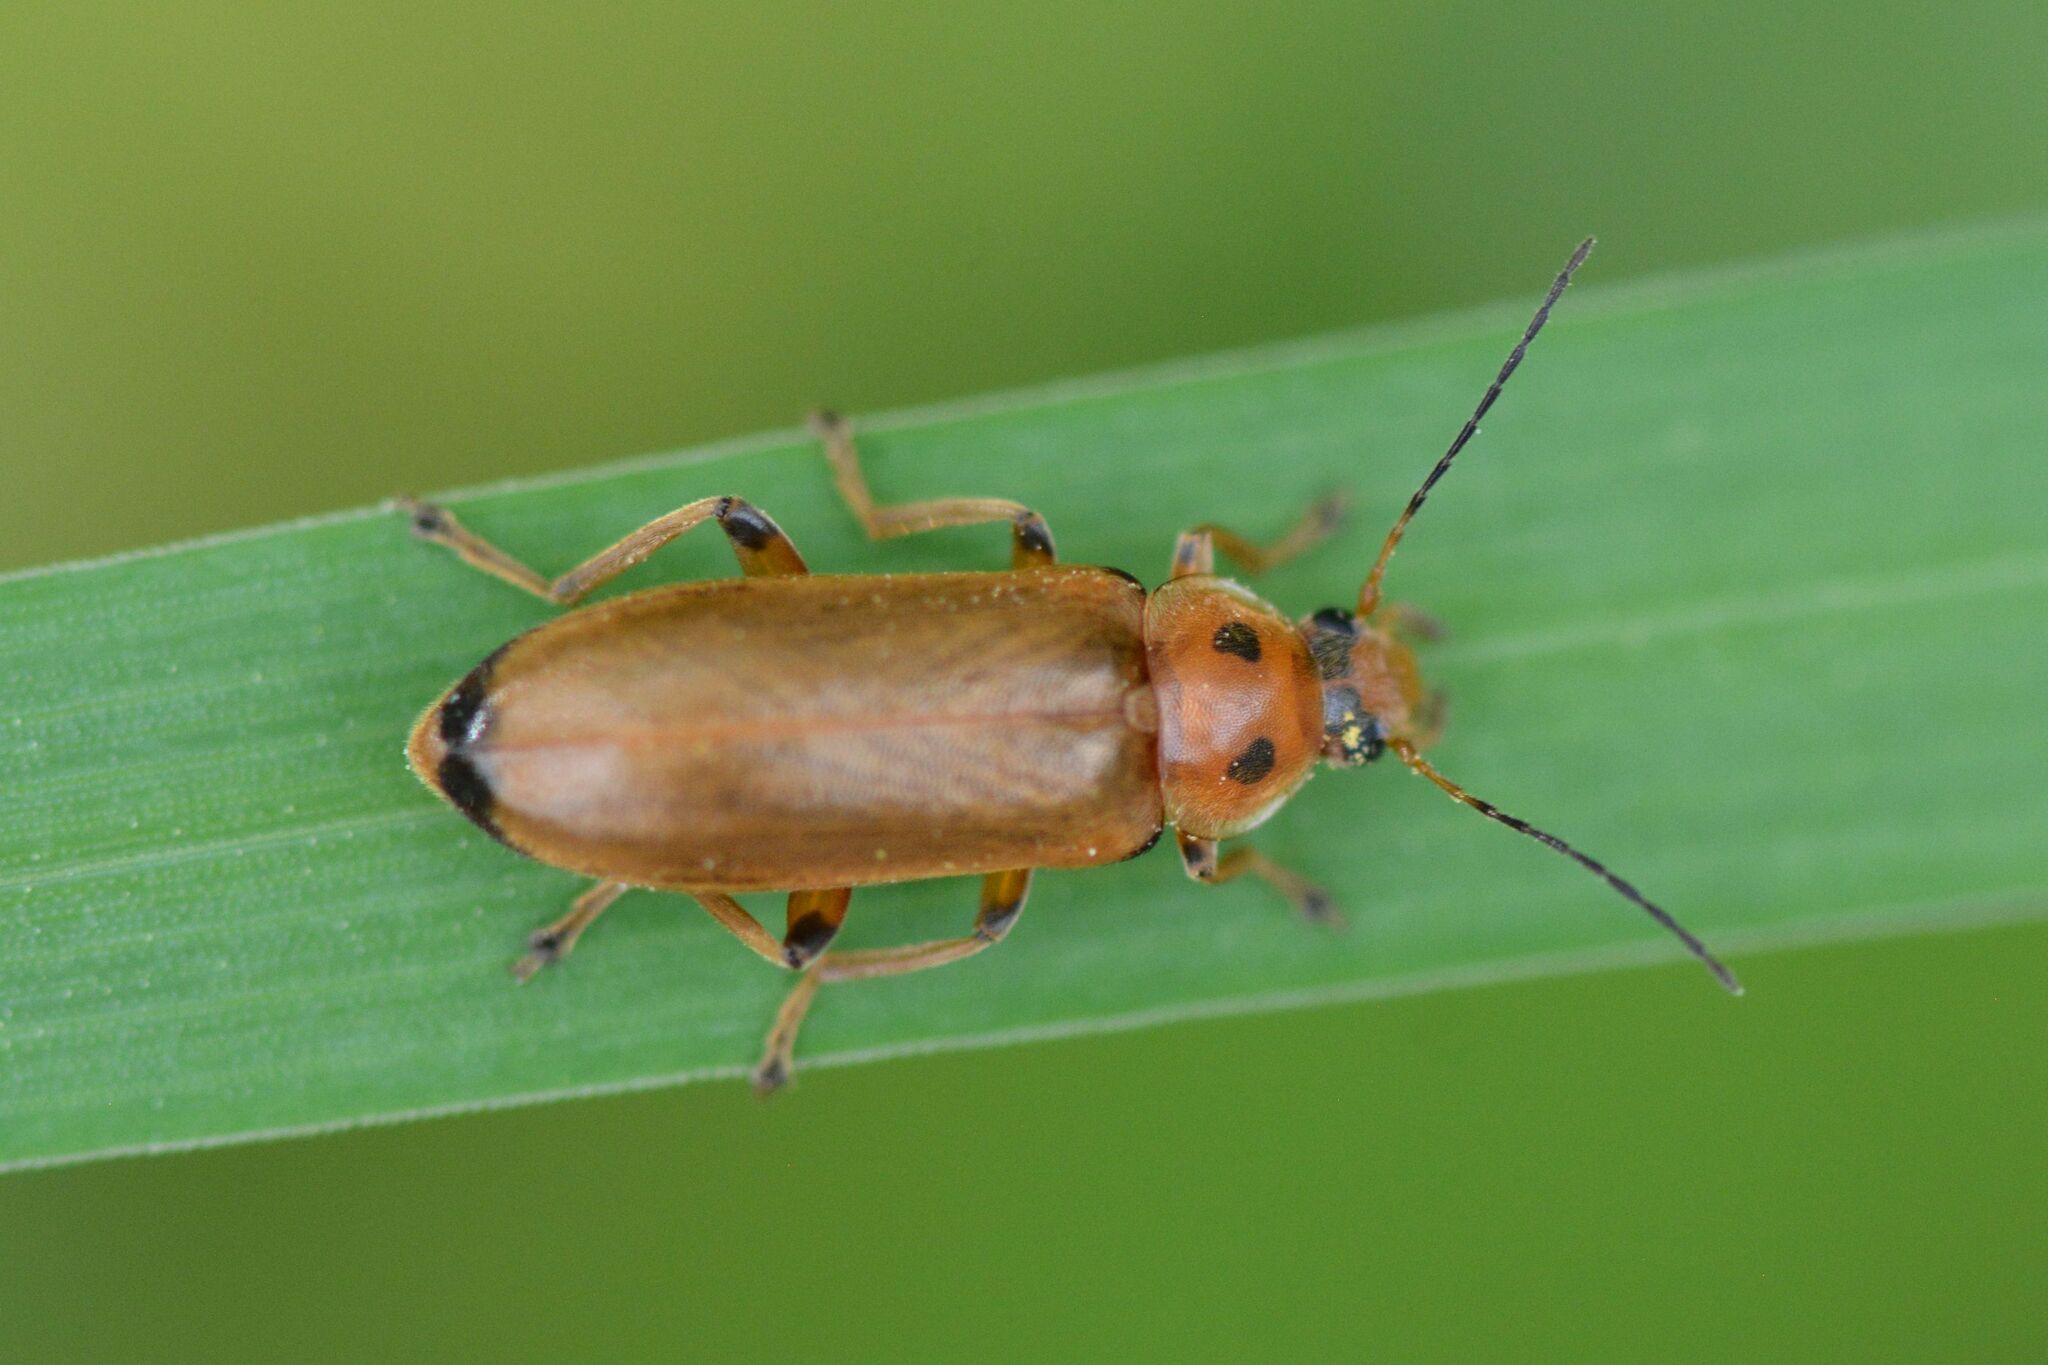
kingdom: Animalia
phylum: Arthropoda
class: Insecta
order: Coleoptera
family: Melandryidae
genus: Osphya
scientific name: Osphya bipunctata
